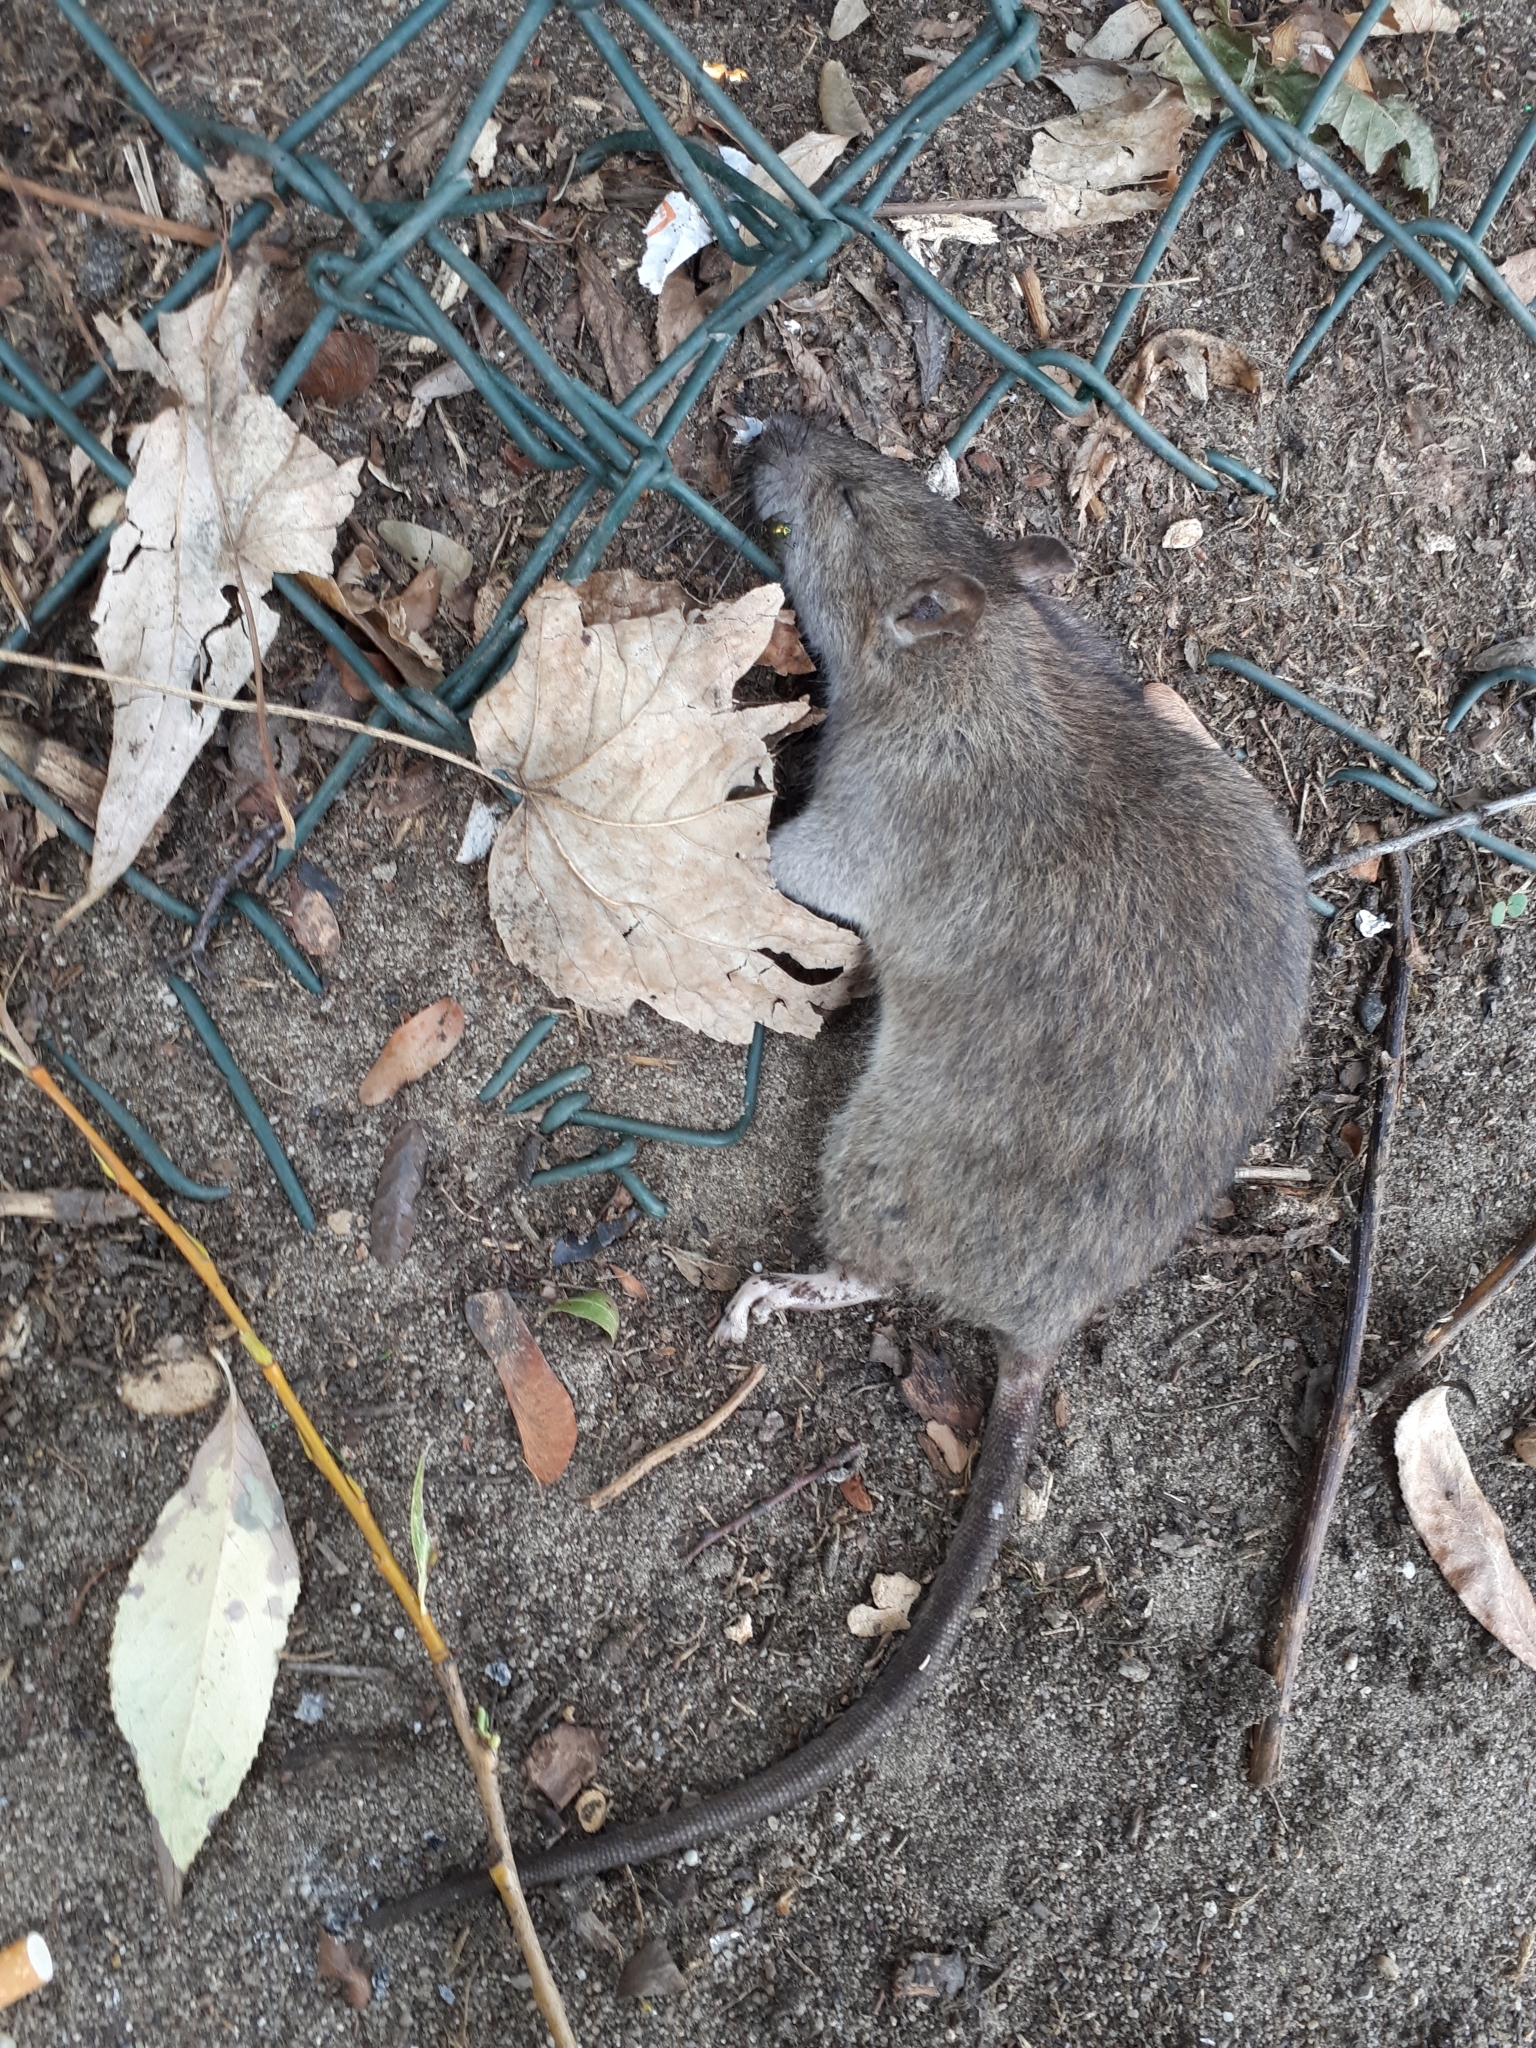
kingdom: Animalia
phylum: Chordata
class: Mammalia
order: Rodentia
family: Muridae
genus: Rattus
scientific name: Rattus norvegicus
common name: Brown rat
